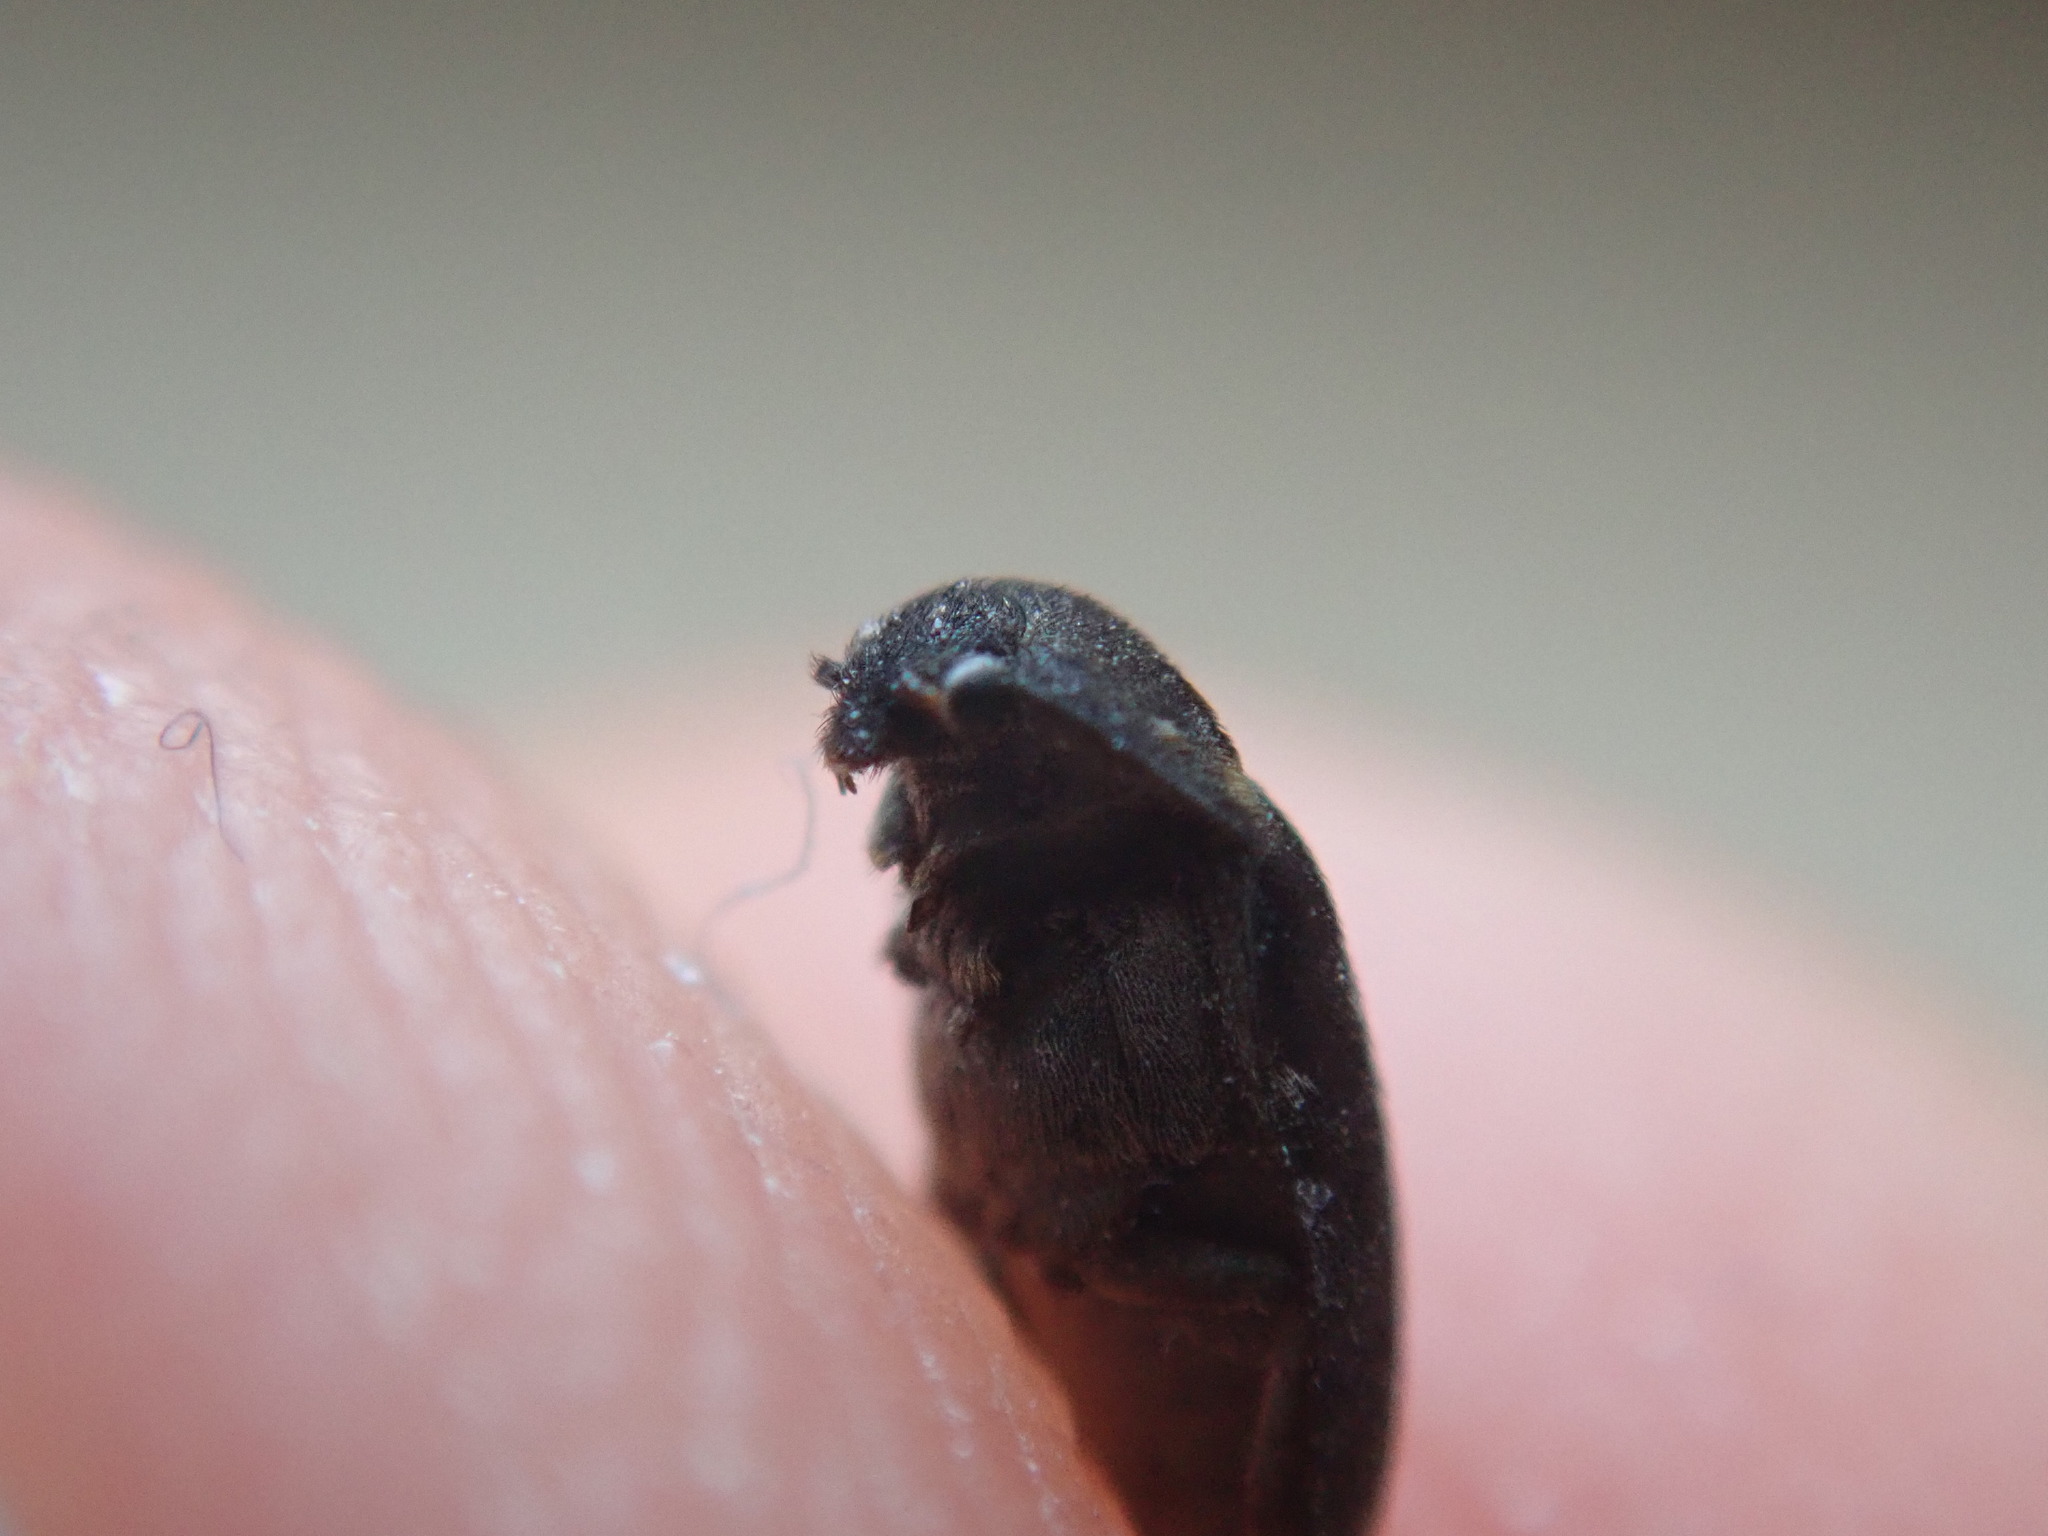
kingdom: Animalia
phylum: Arthropoda
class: Insecta
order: Coleoptera
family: Dermestidae
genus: Attagenus
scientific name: Attagenus pellio
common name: Two-spotted carpet beetle
